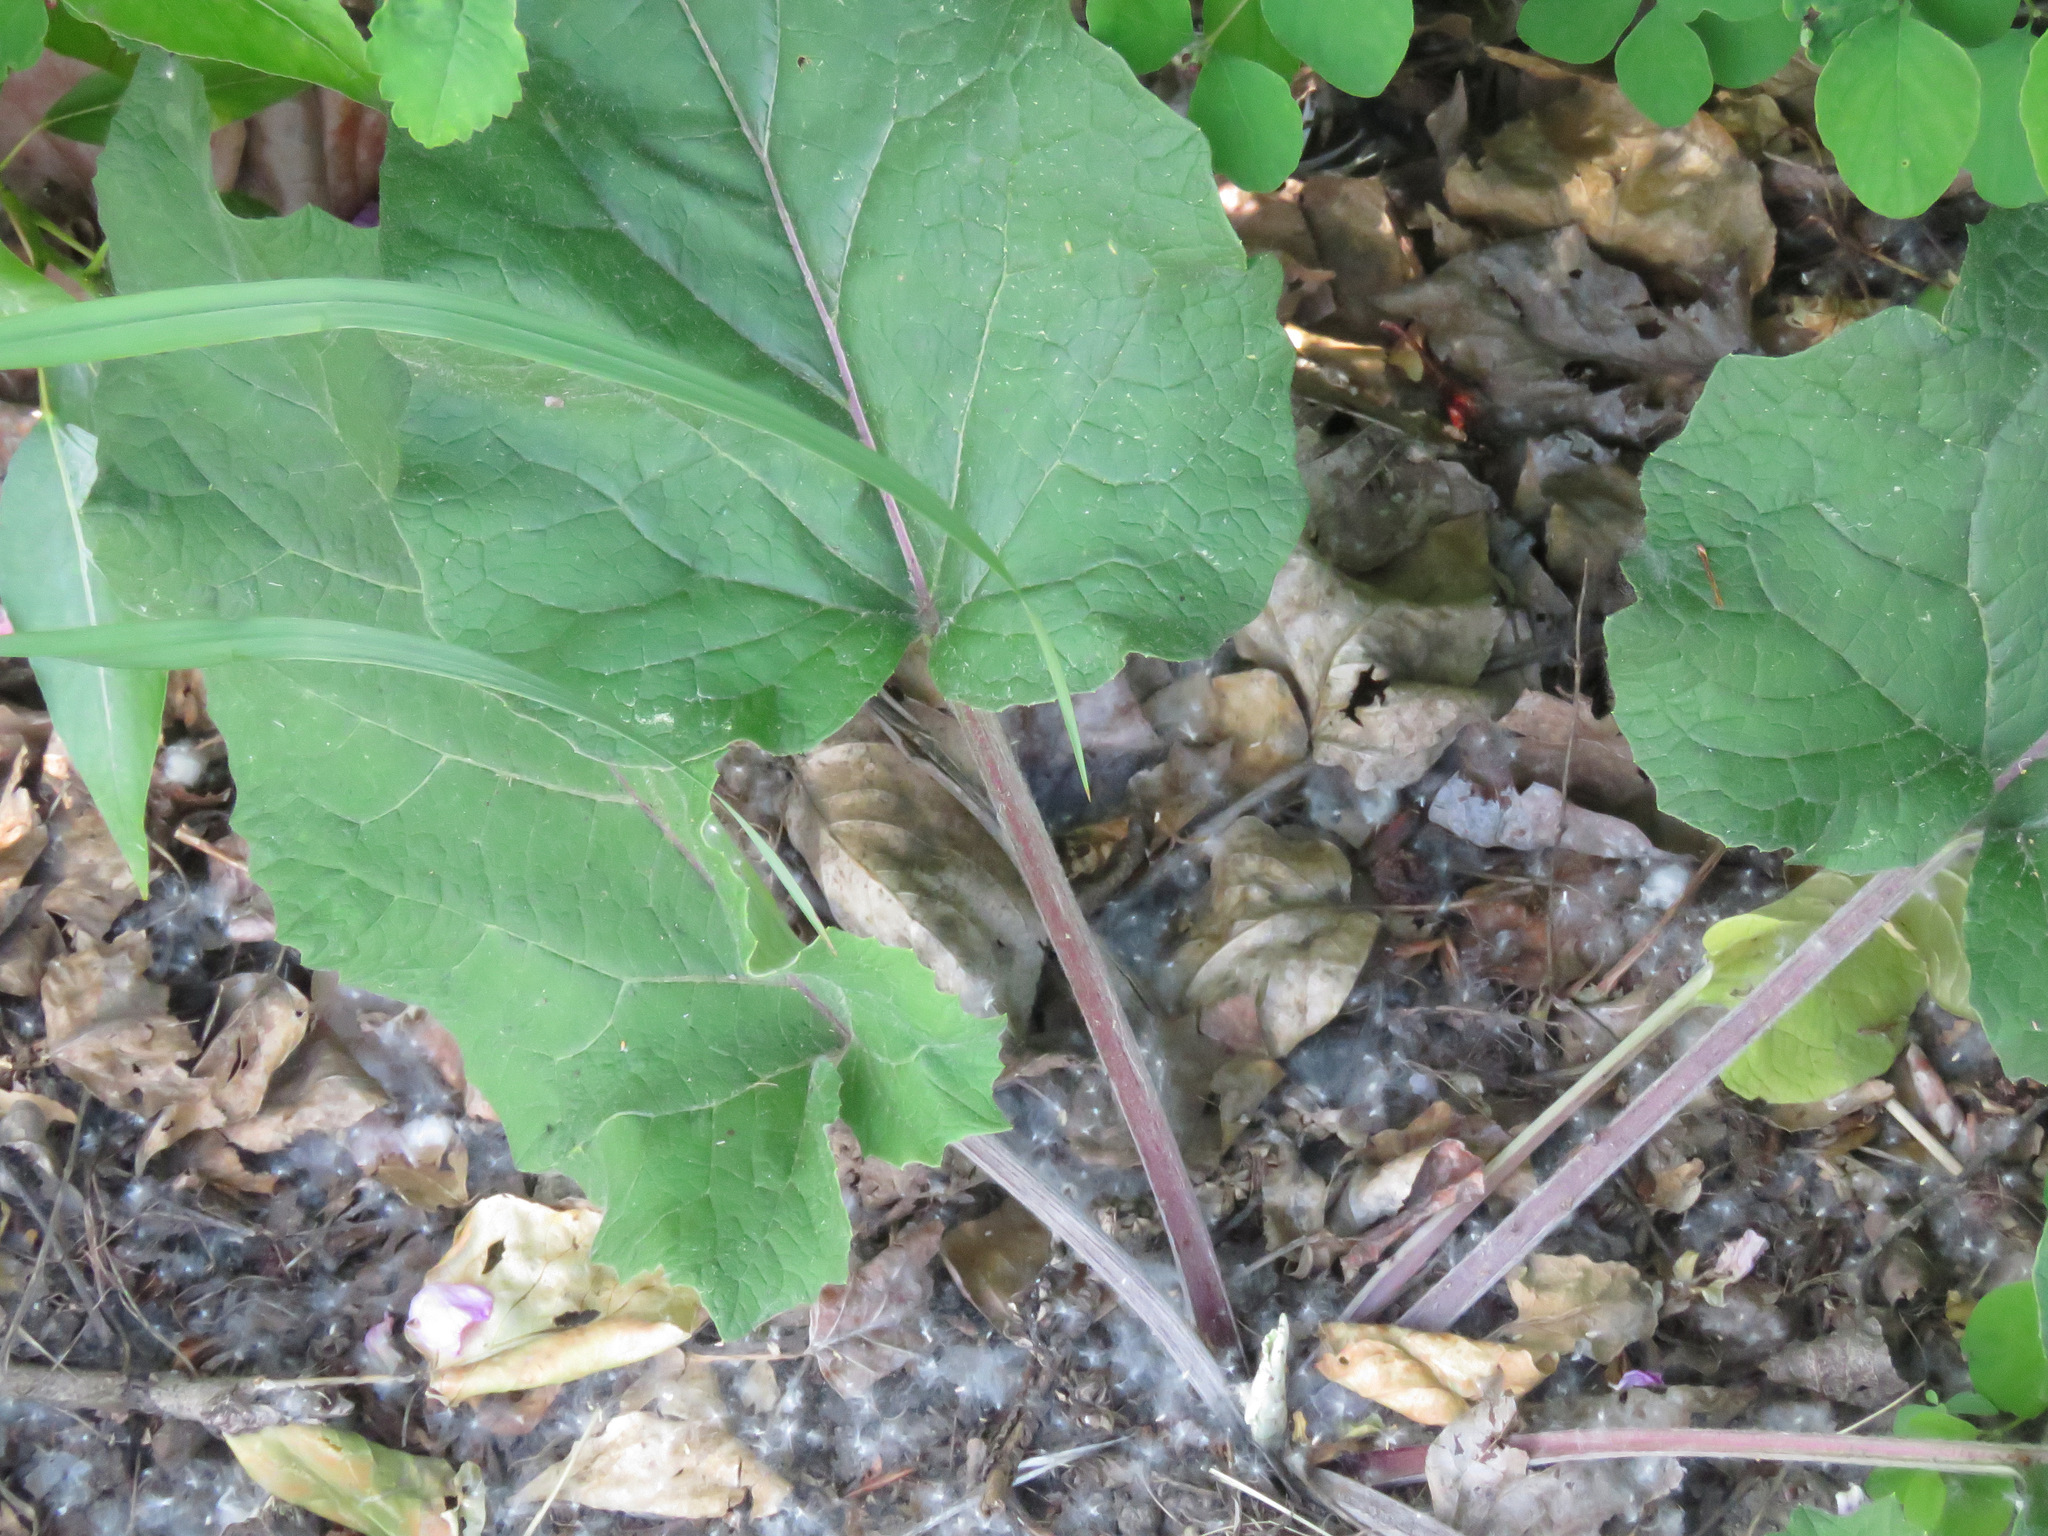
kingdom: Plantae
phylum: Tracheophyta
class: Magnoliopsida
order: Asterales
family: Asteraceae
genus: Arctium
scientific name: Arctium
